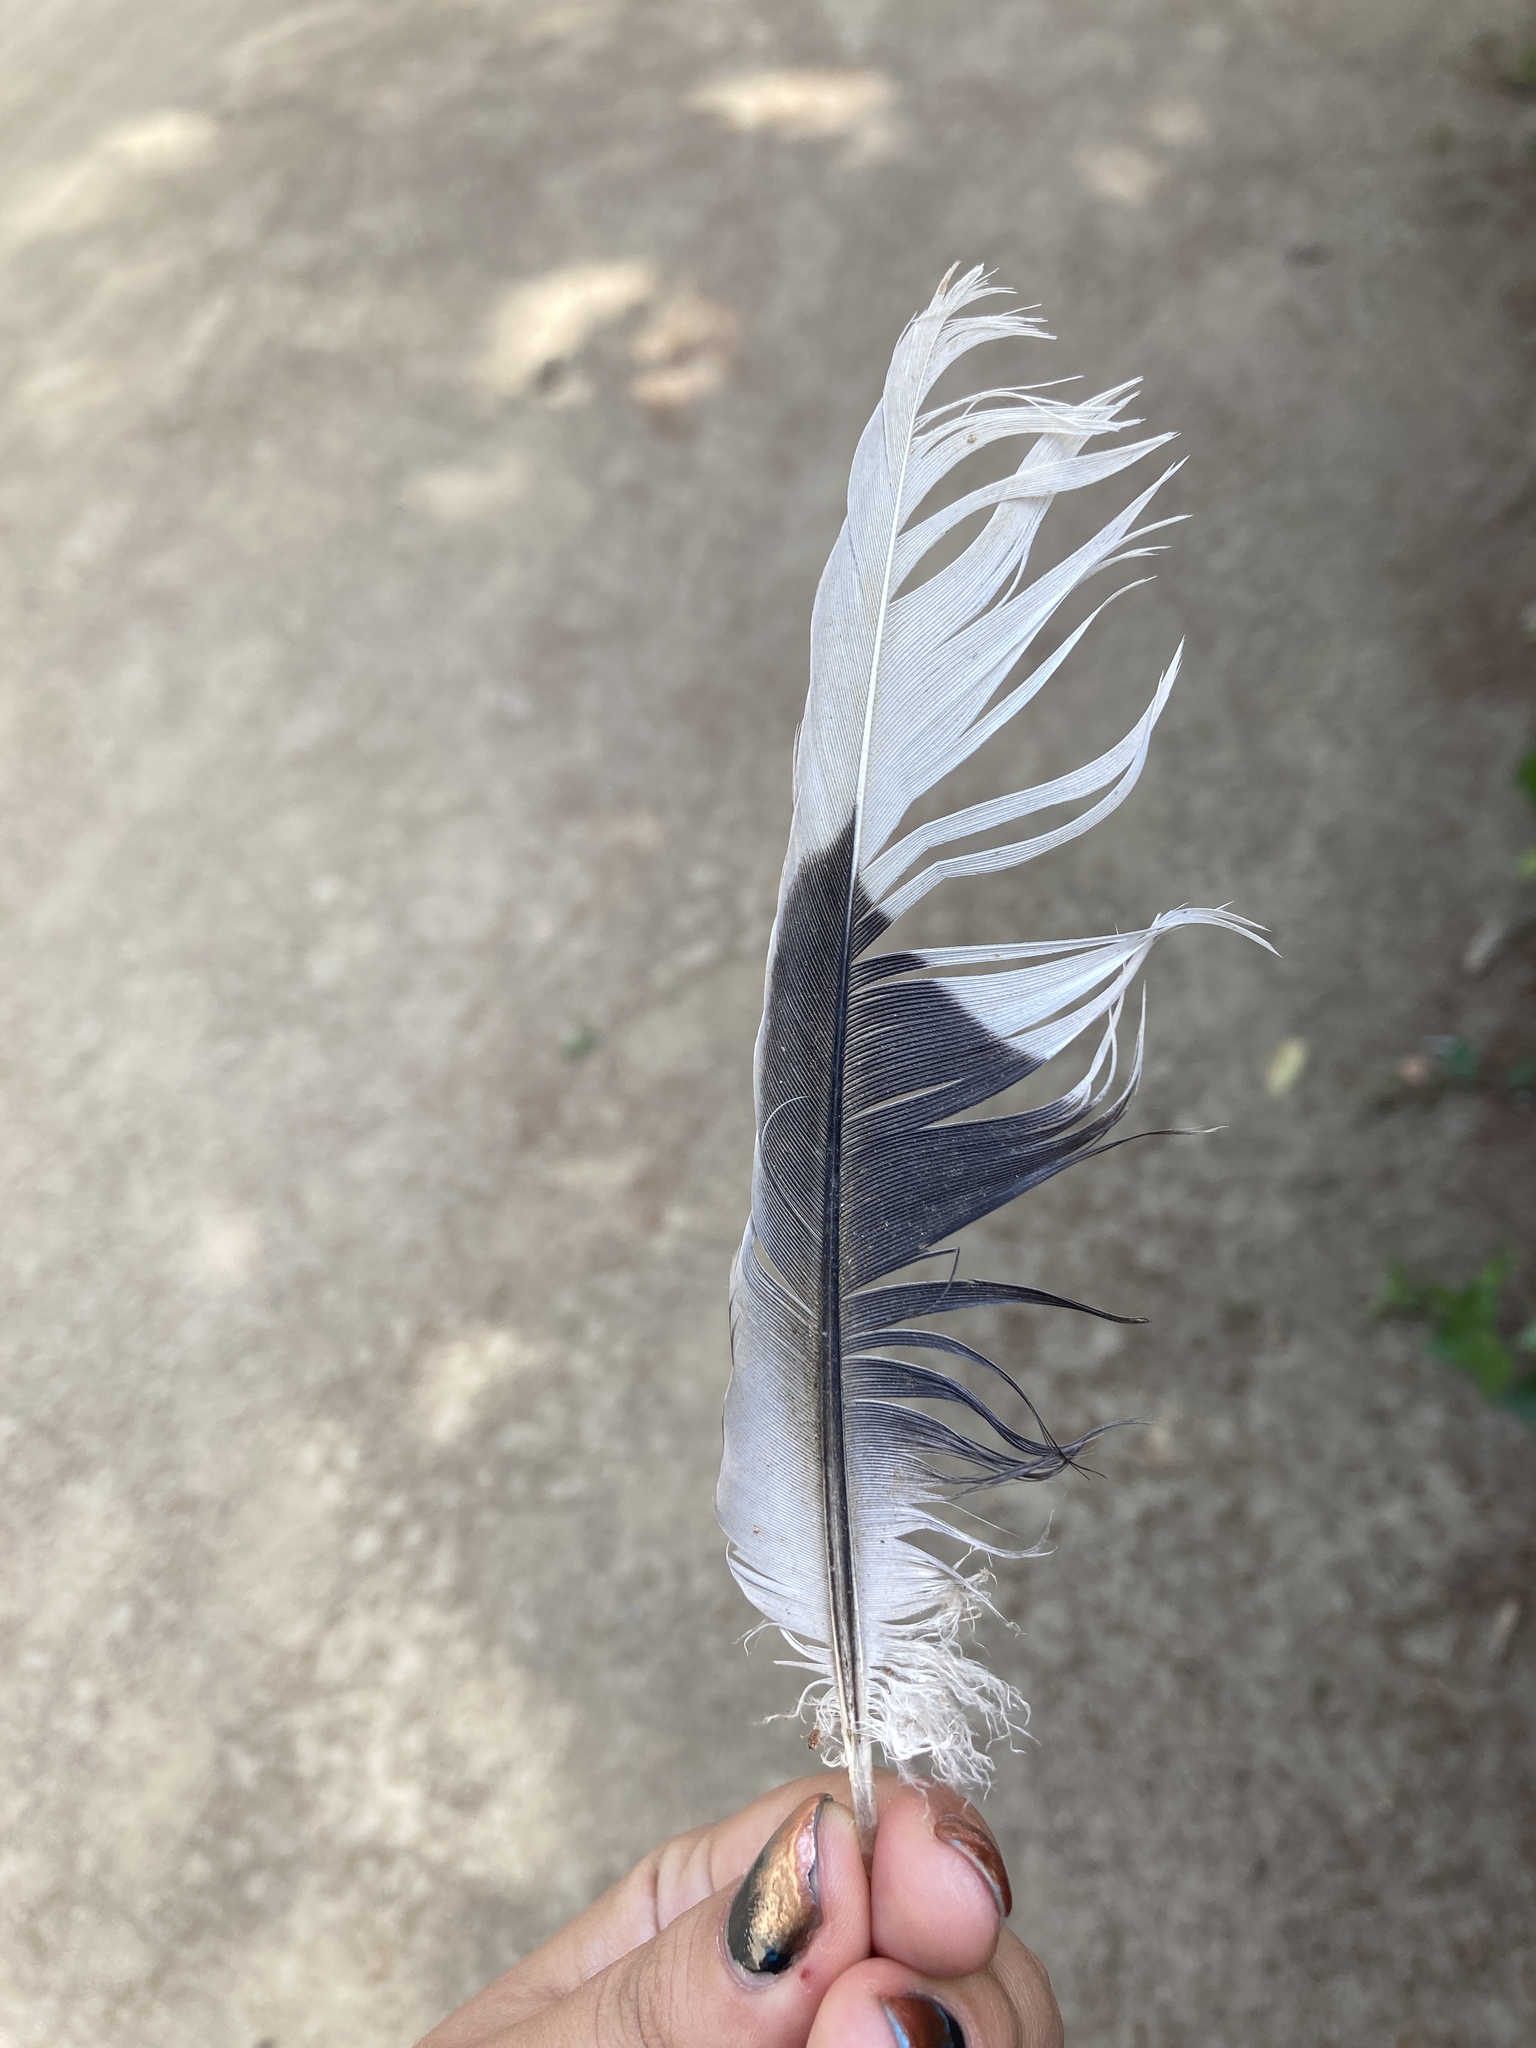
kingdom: Animalia
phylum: Chordata
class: Aves
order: Columbiformes
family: Columbidae
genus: Streptopelia
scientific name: Streptopelia decaocto
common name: Eurasian collared dove
